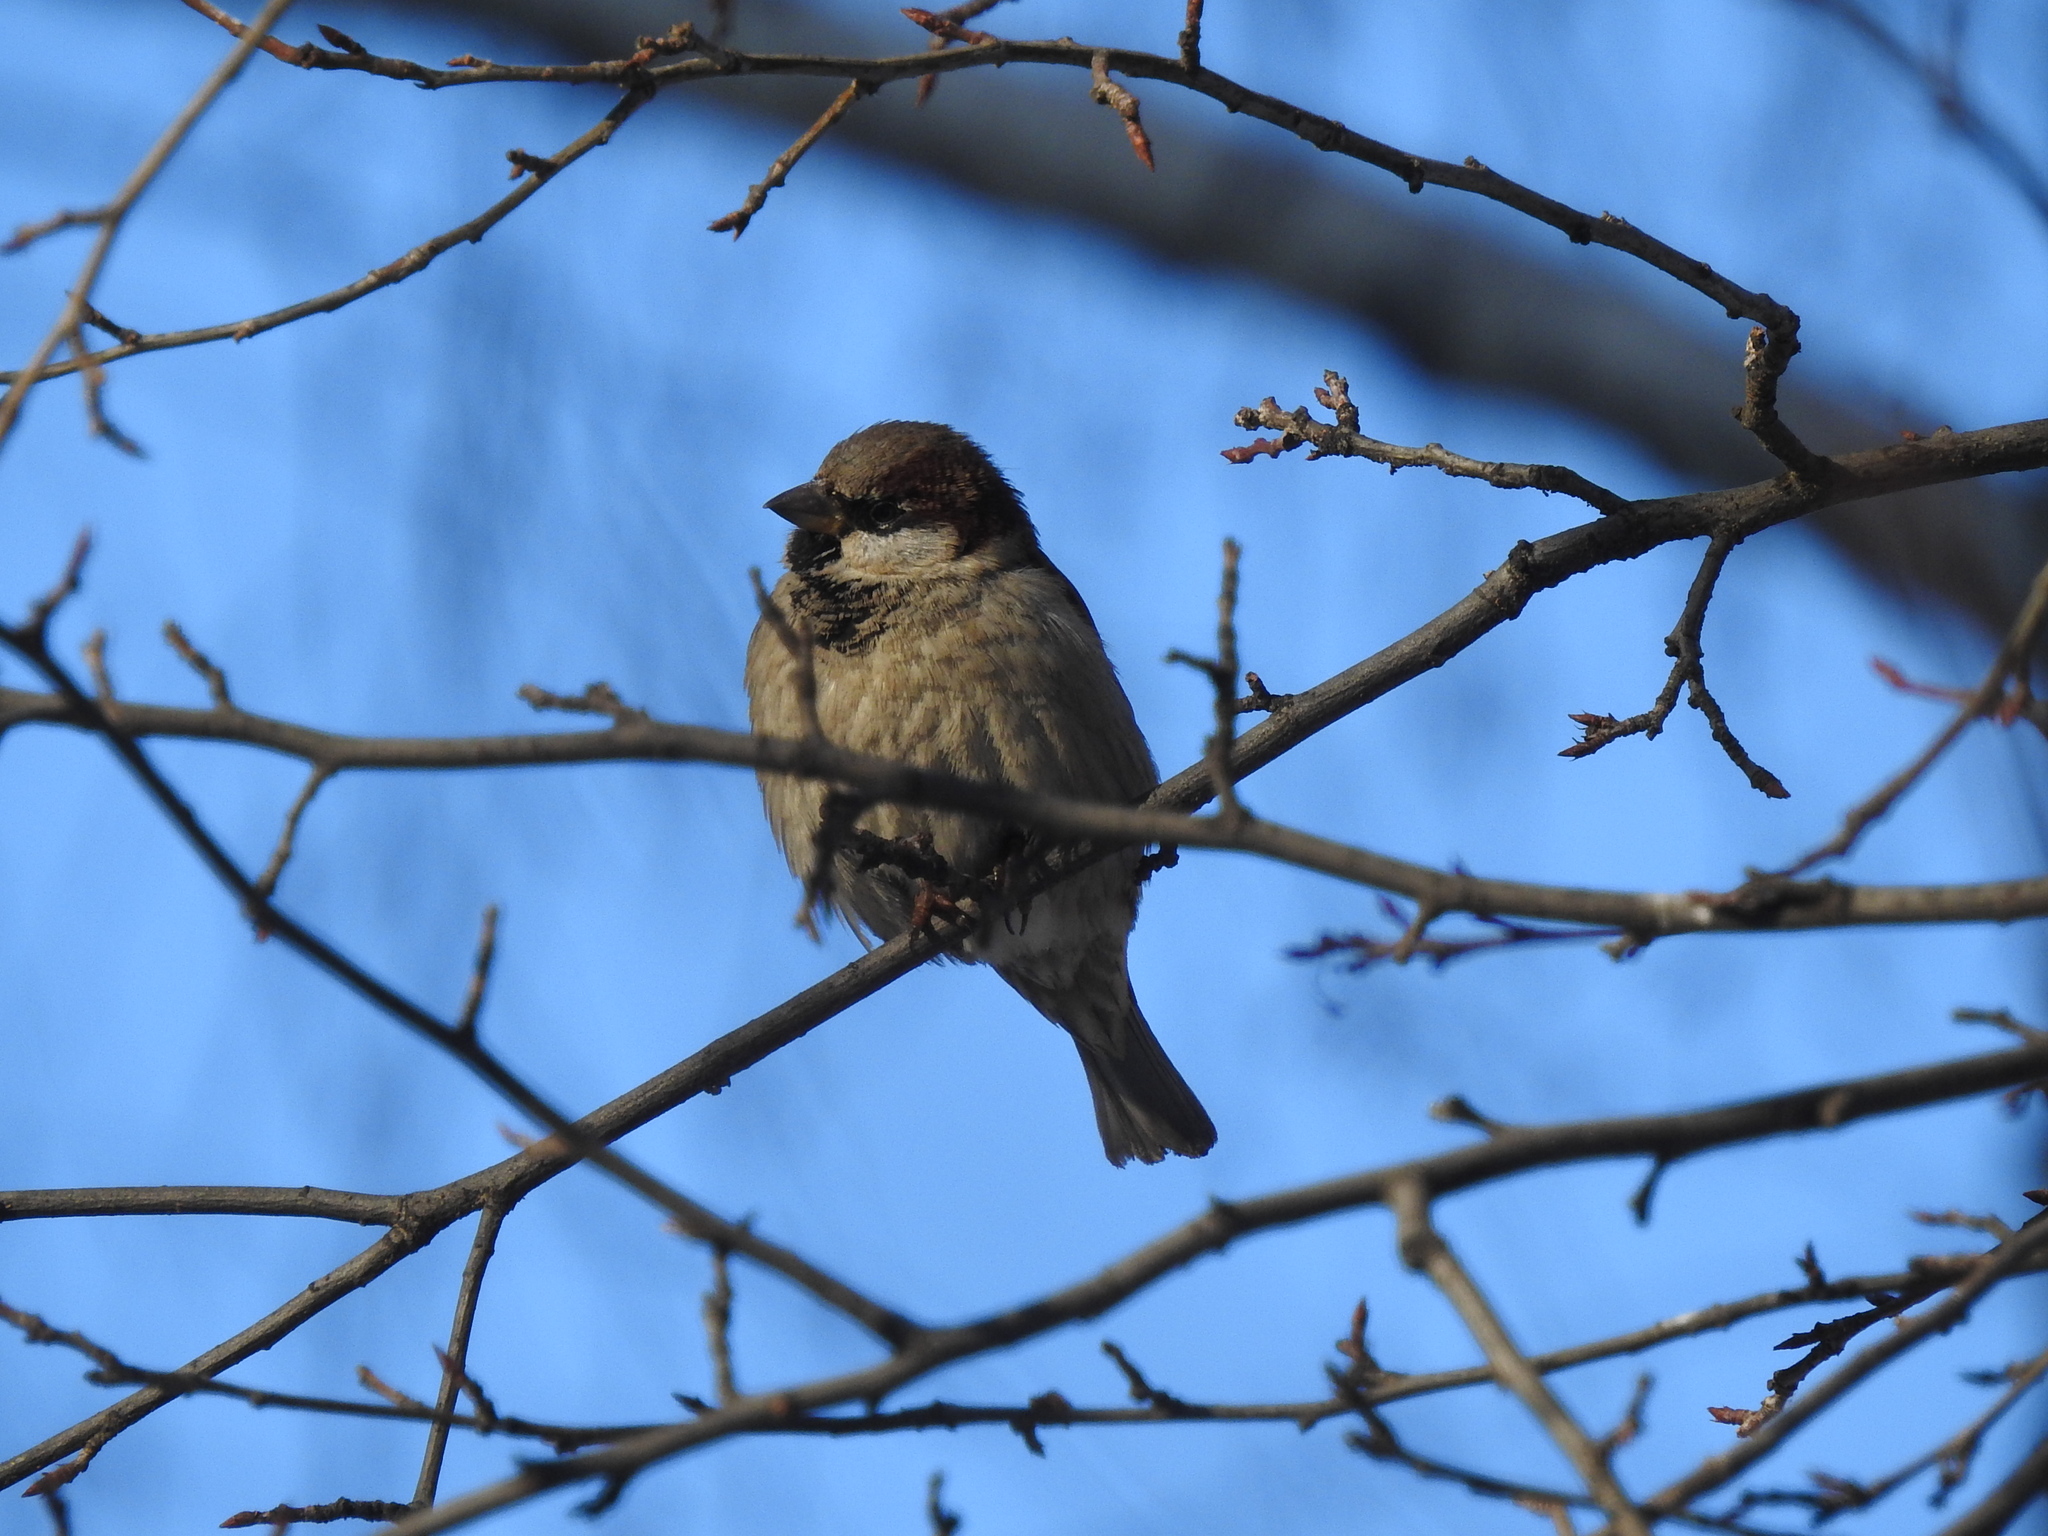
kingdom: Animalia
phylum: Chordata
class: Aves
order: Passeriformes
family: Passeridae
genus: Passer
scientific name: Passer domesticus
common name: House sparrow
